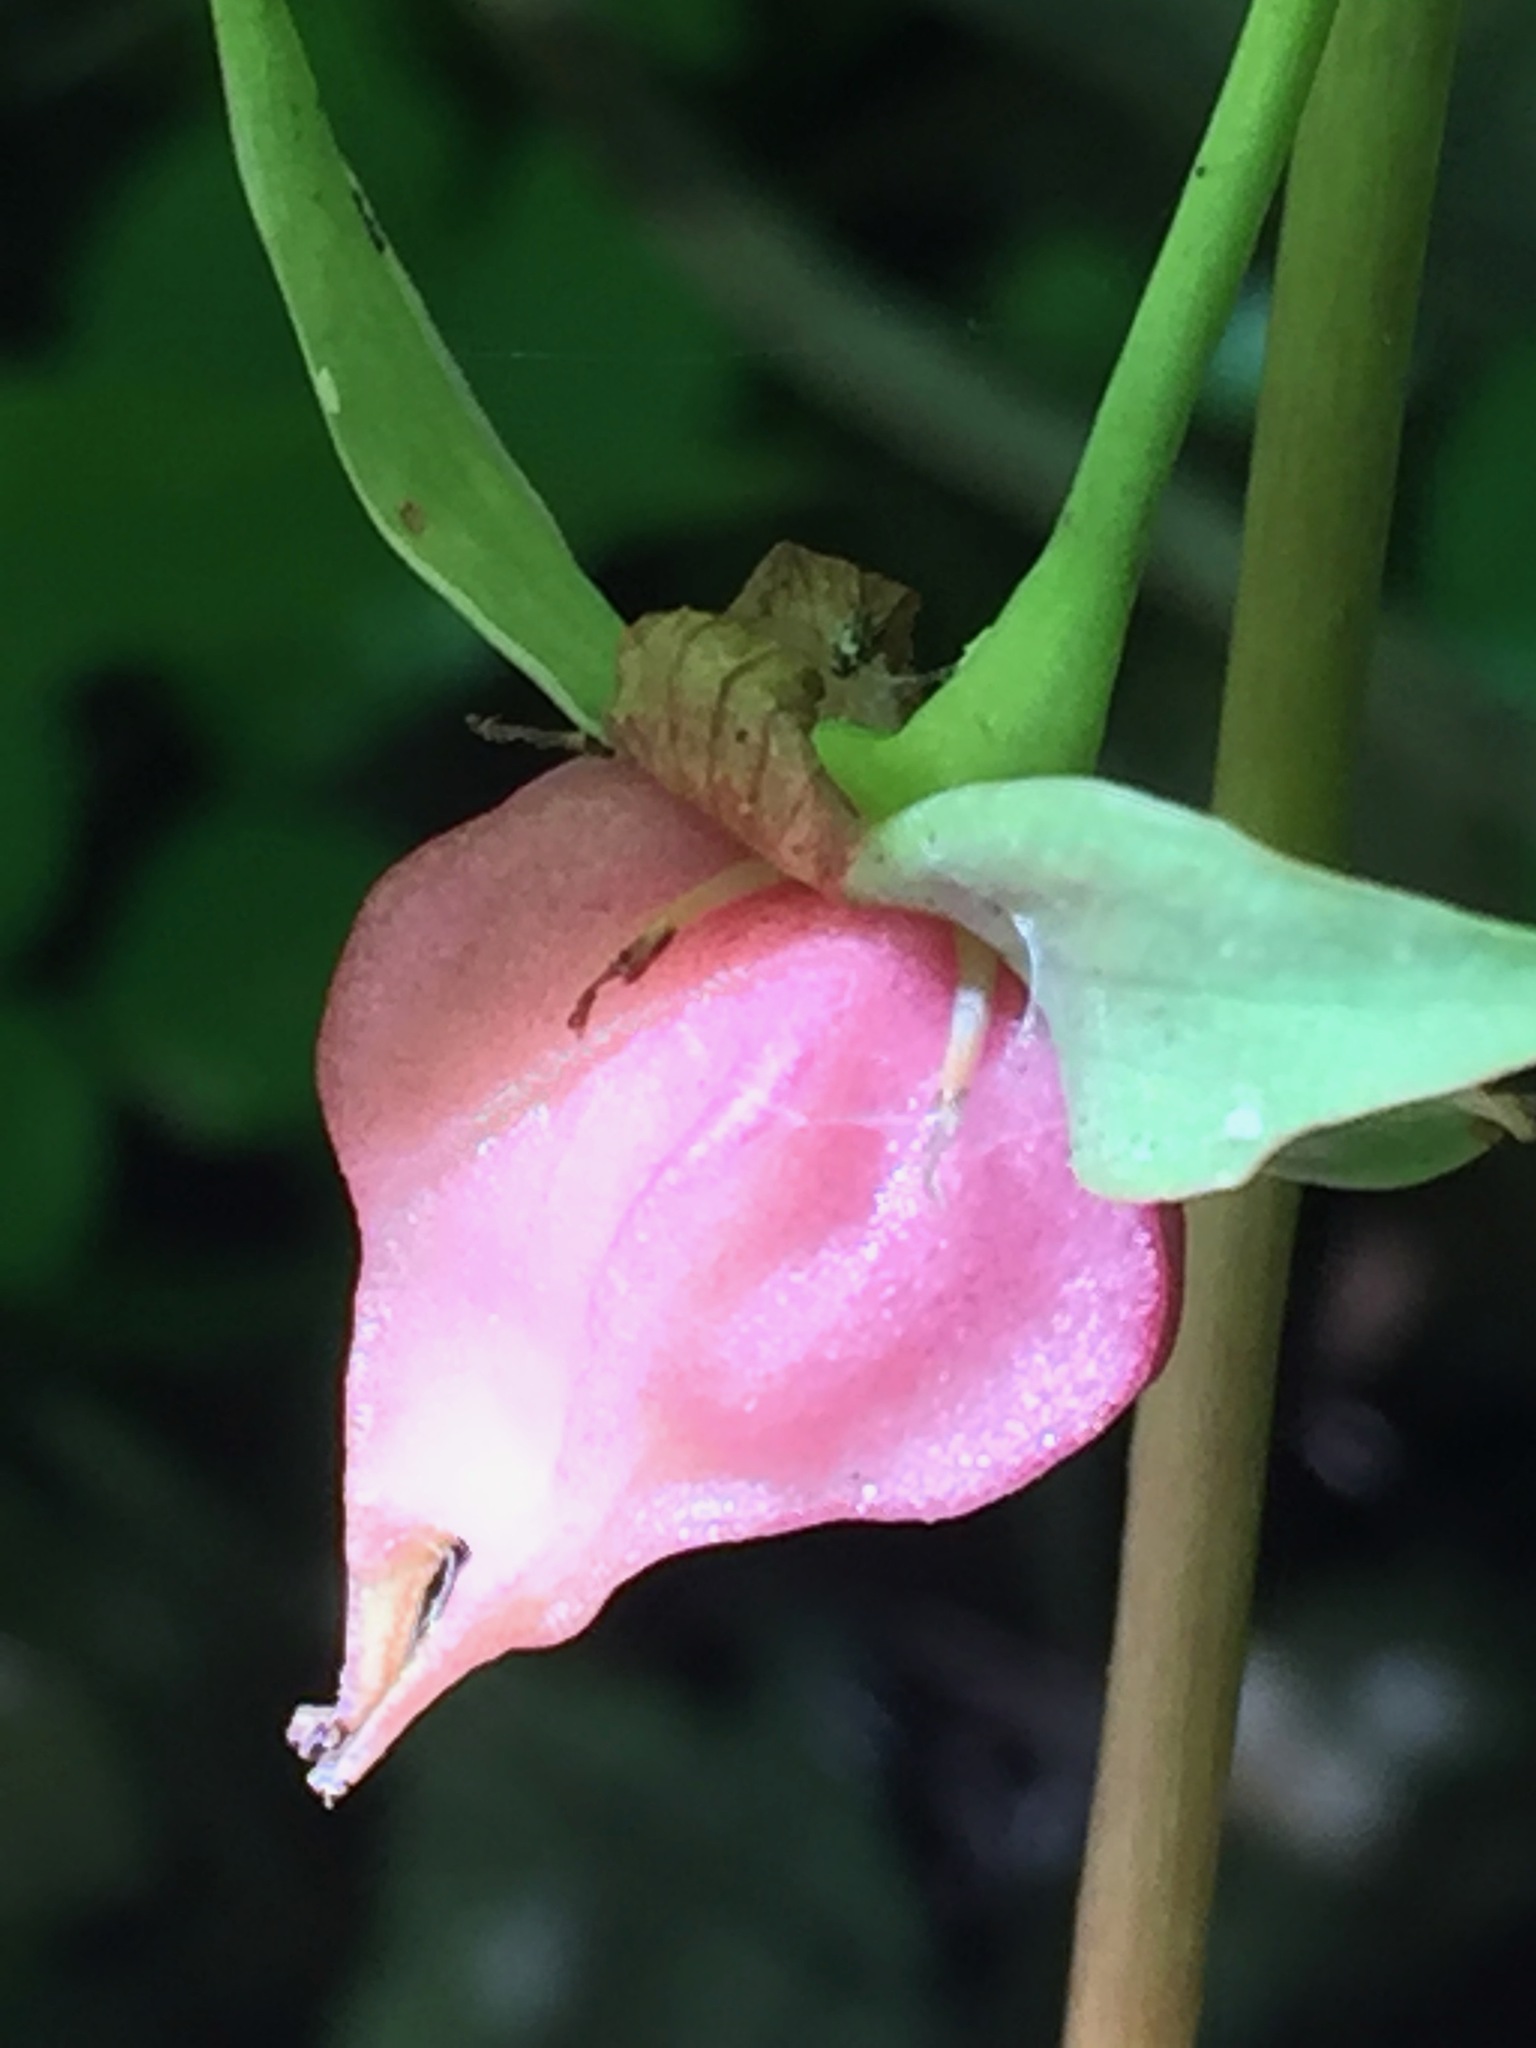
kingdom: Plantae
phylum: Tracheophyta
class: Liliopsida
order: Liliales
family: Melanthiaceae
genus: Trillium
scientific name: Trillium cernuum
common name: Nodding trillium
